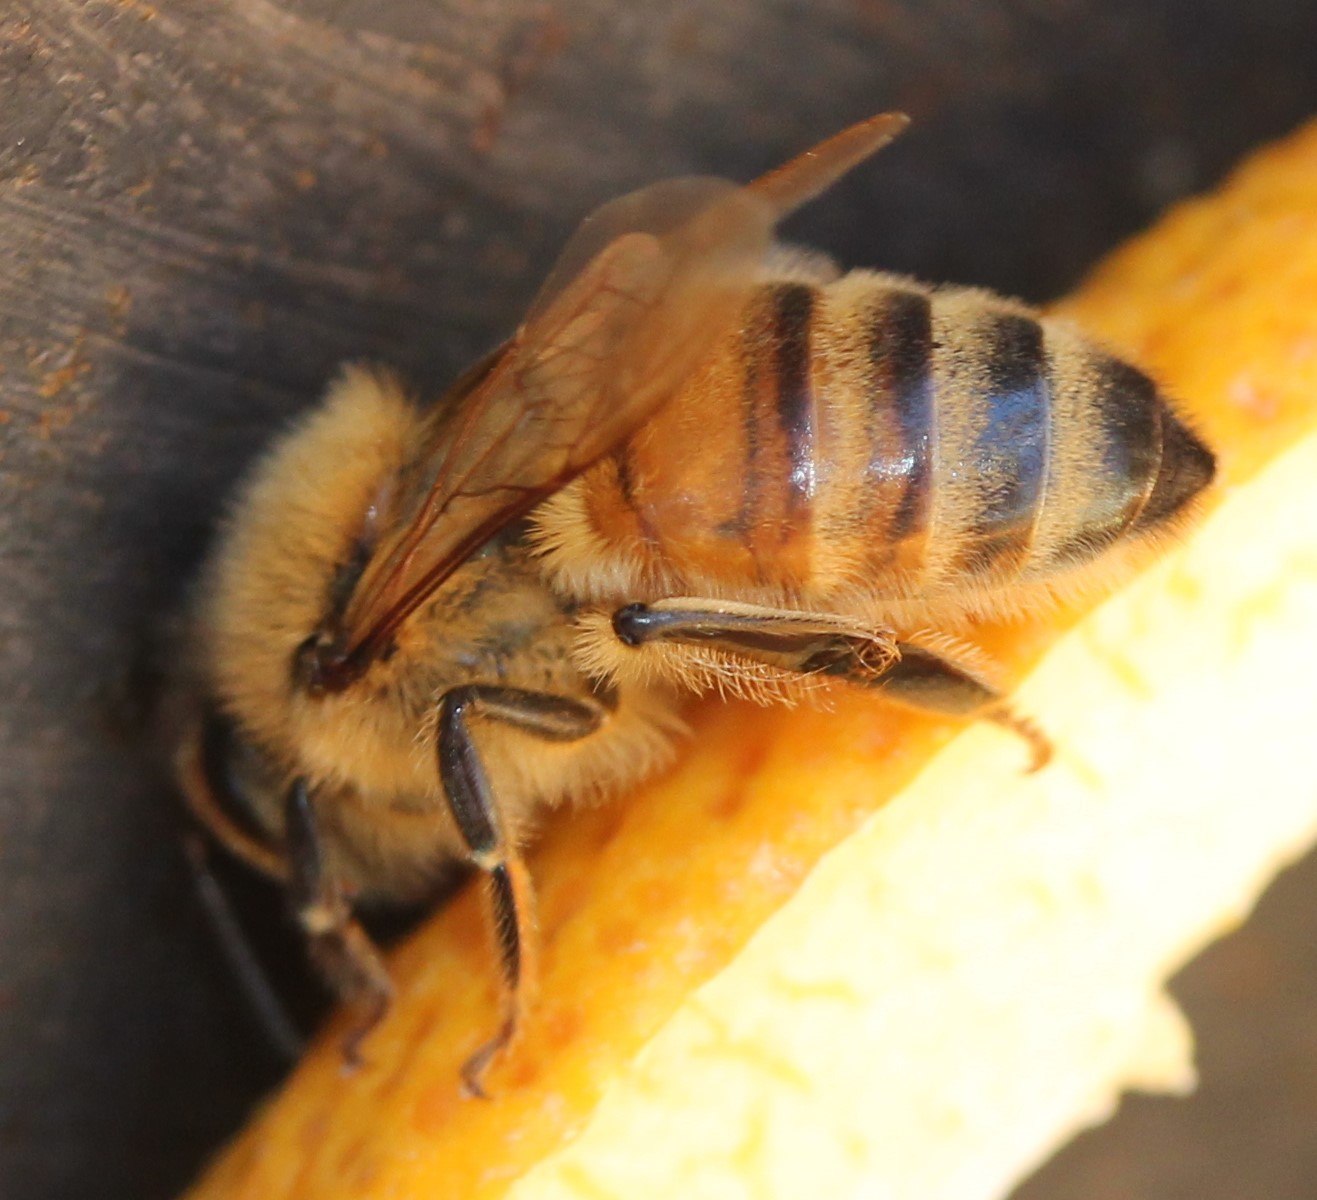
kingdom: Animalia
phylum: Arthropoda
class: Insecta
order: Hymenoptera
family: Apidae
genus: Apis
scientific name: Apis mellifera
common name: Honey bee
